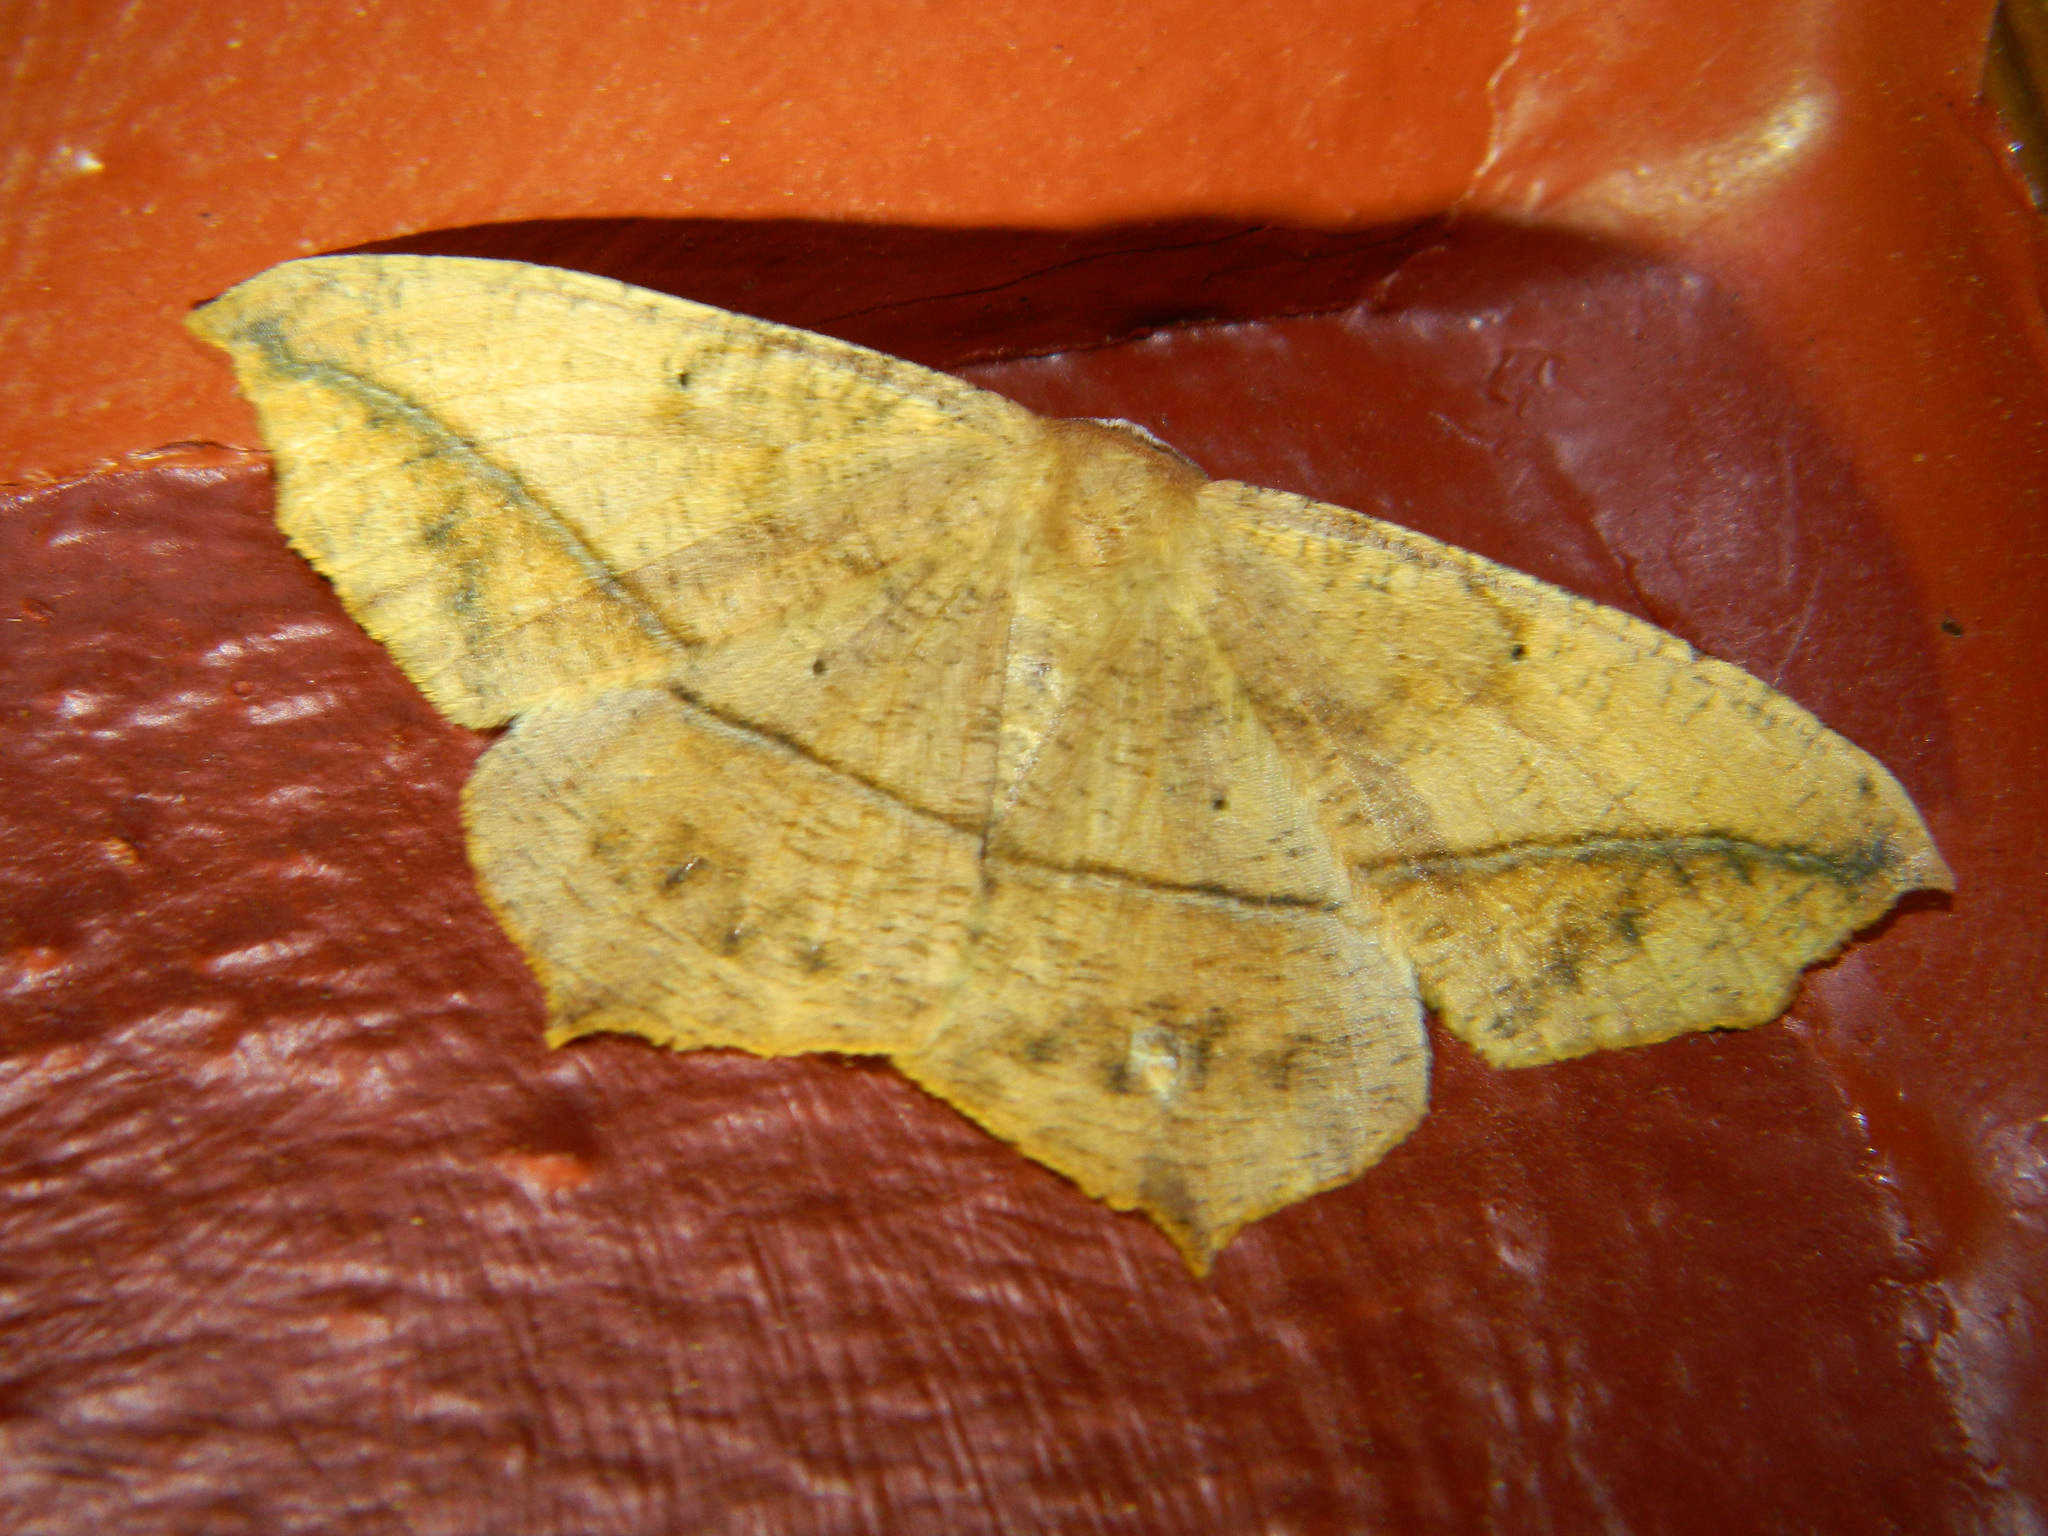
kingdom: Animalia
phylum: Arthropoda
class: Insecta
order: Lepidoptera
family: Geometridae
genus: Prochoerodes
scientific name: Prochoerodes lineola
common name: Large maple spanworm
